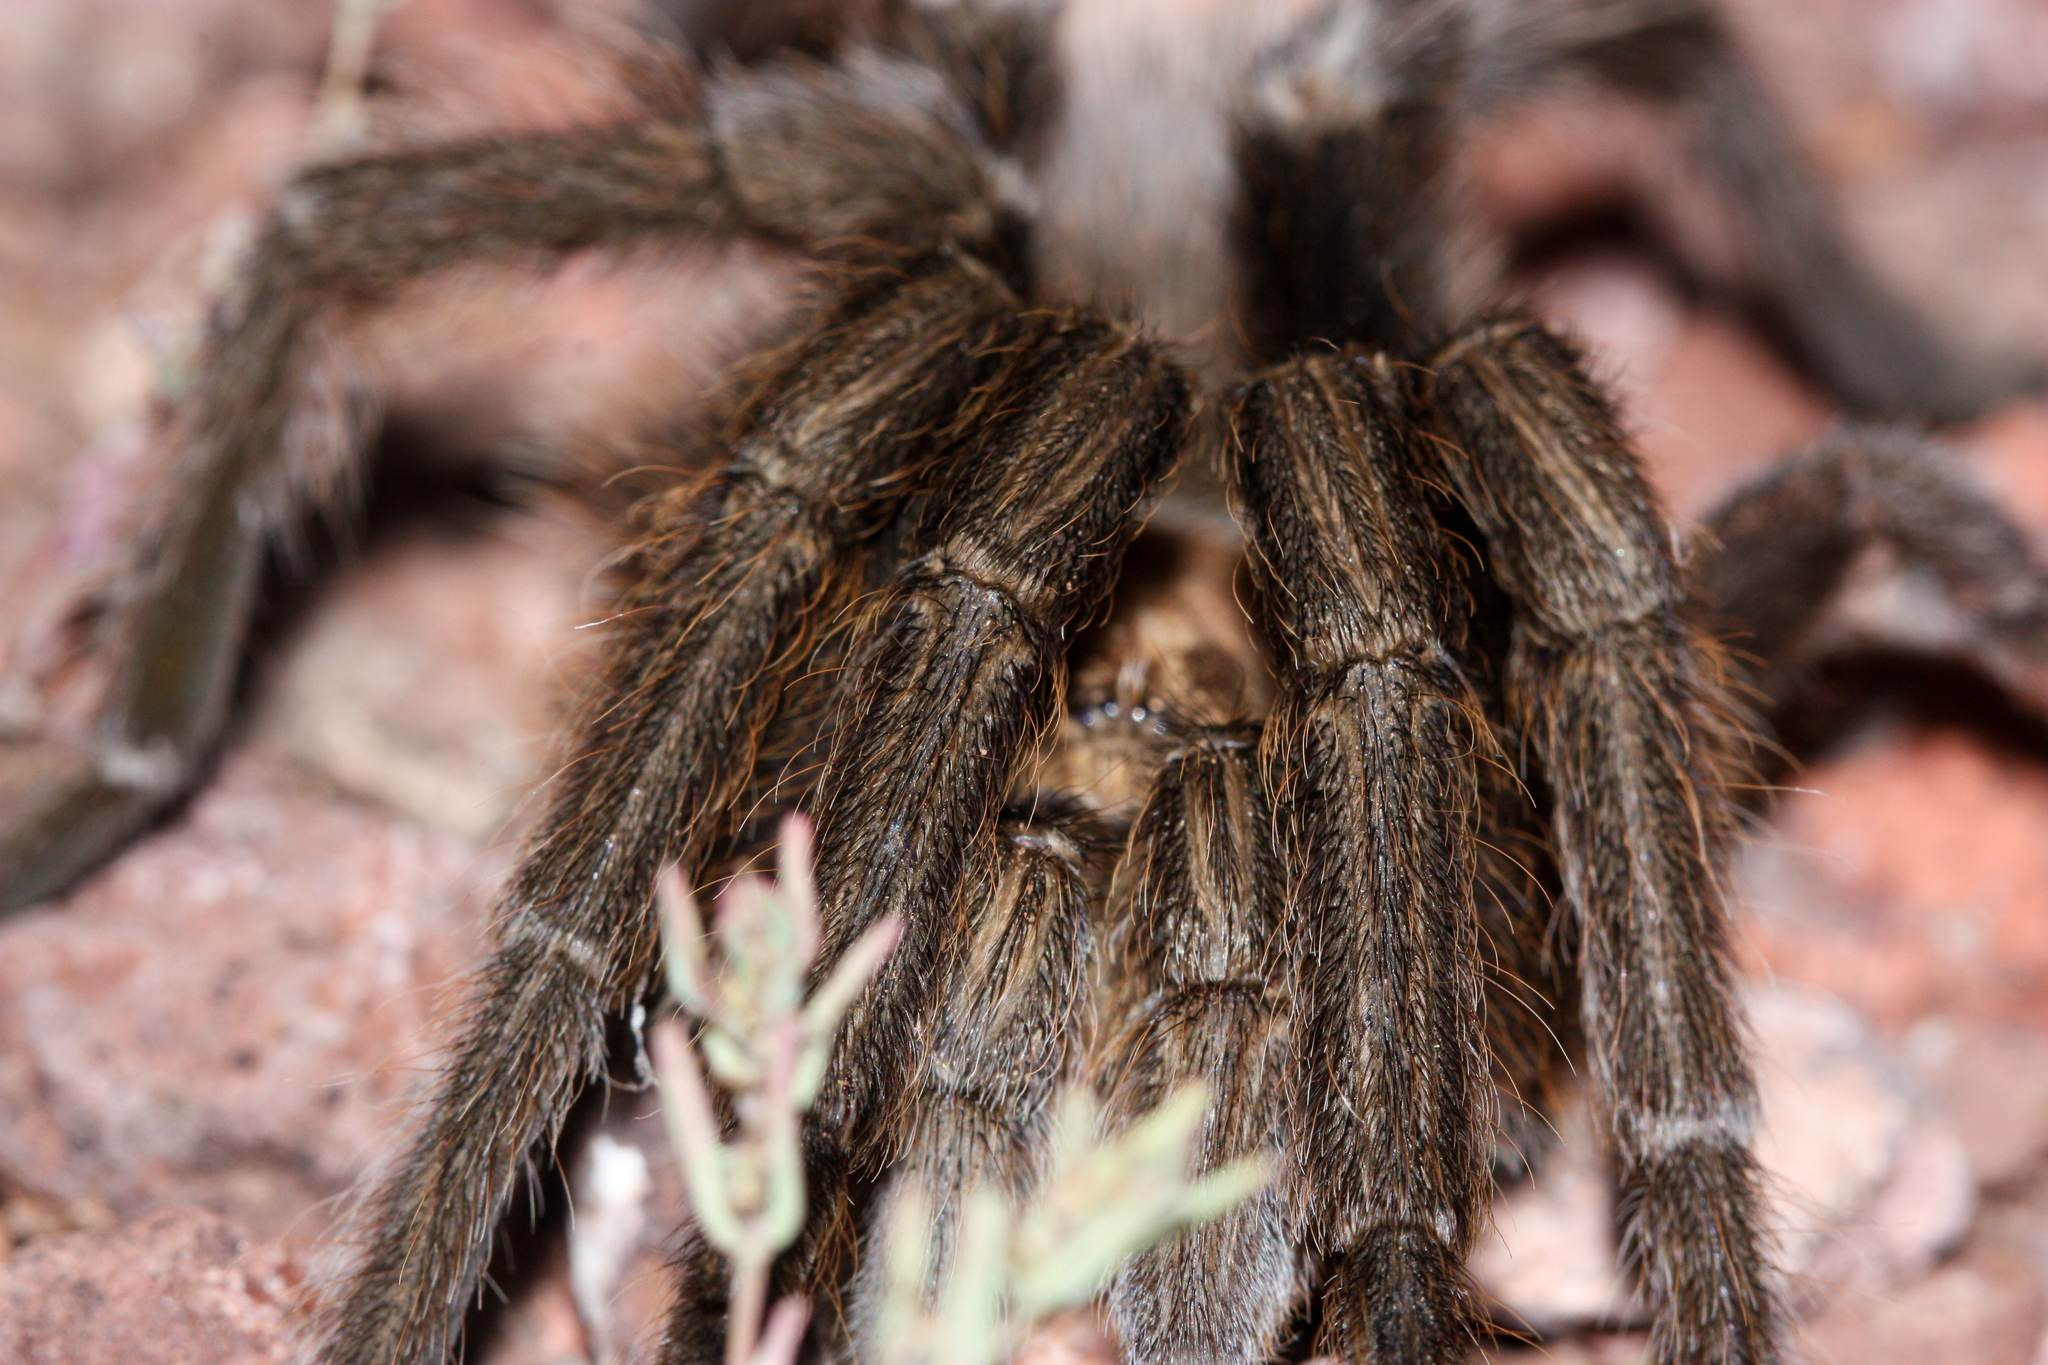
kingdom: Animalia
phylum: Arthropoda
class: Arachnida
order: Araneae
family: Theraphosidae
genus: Aphonopelma
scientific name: Aphonopelma chalcodes
